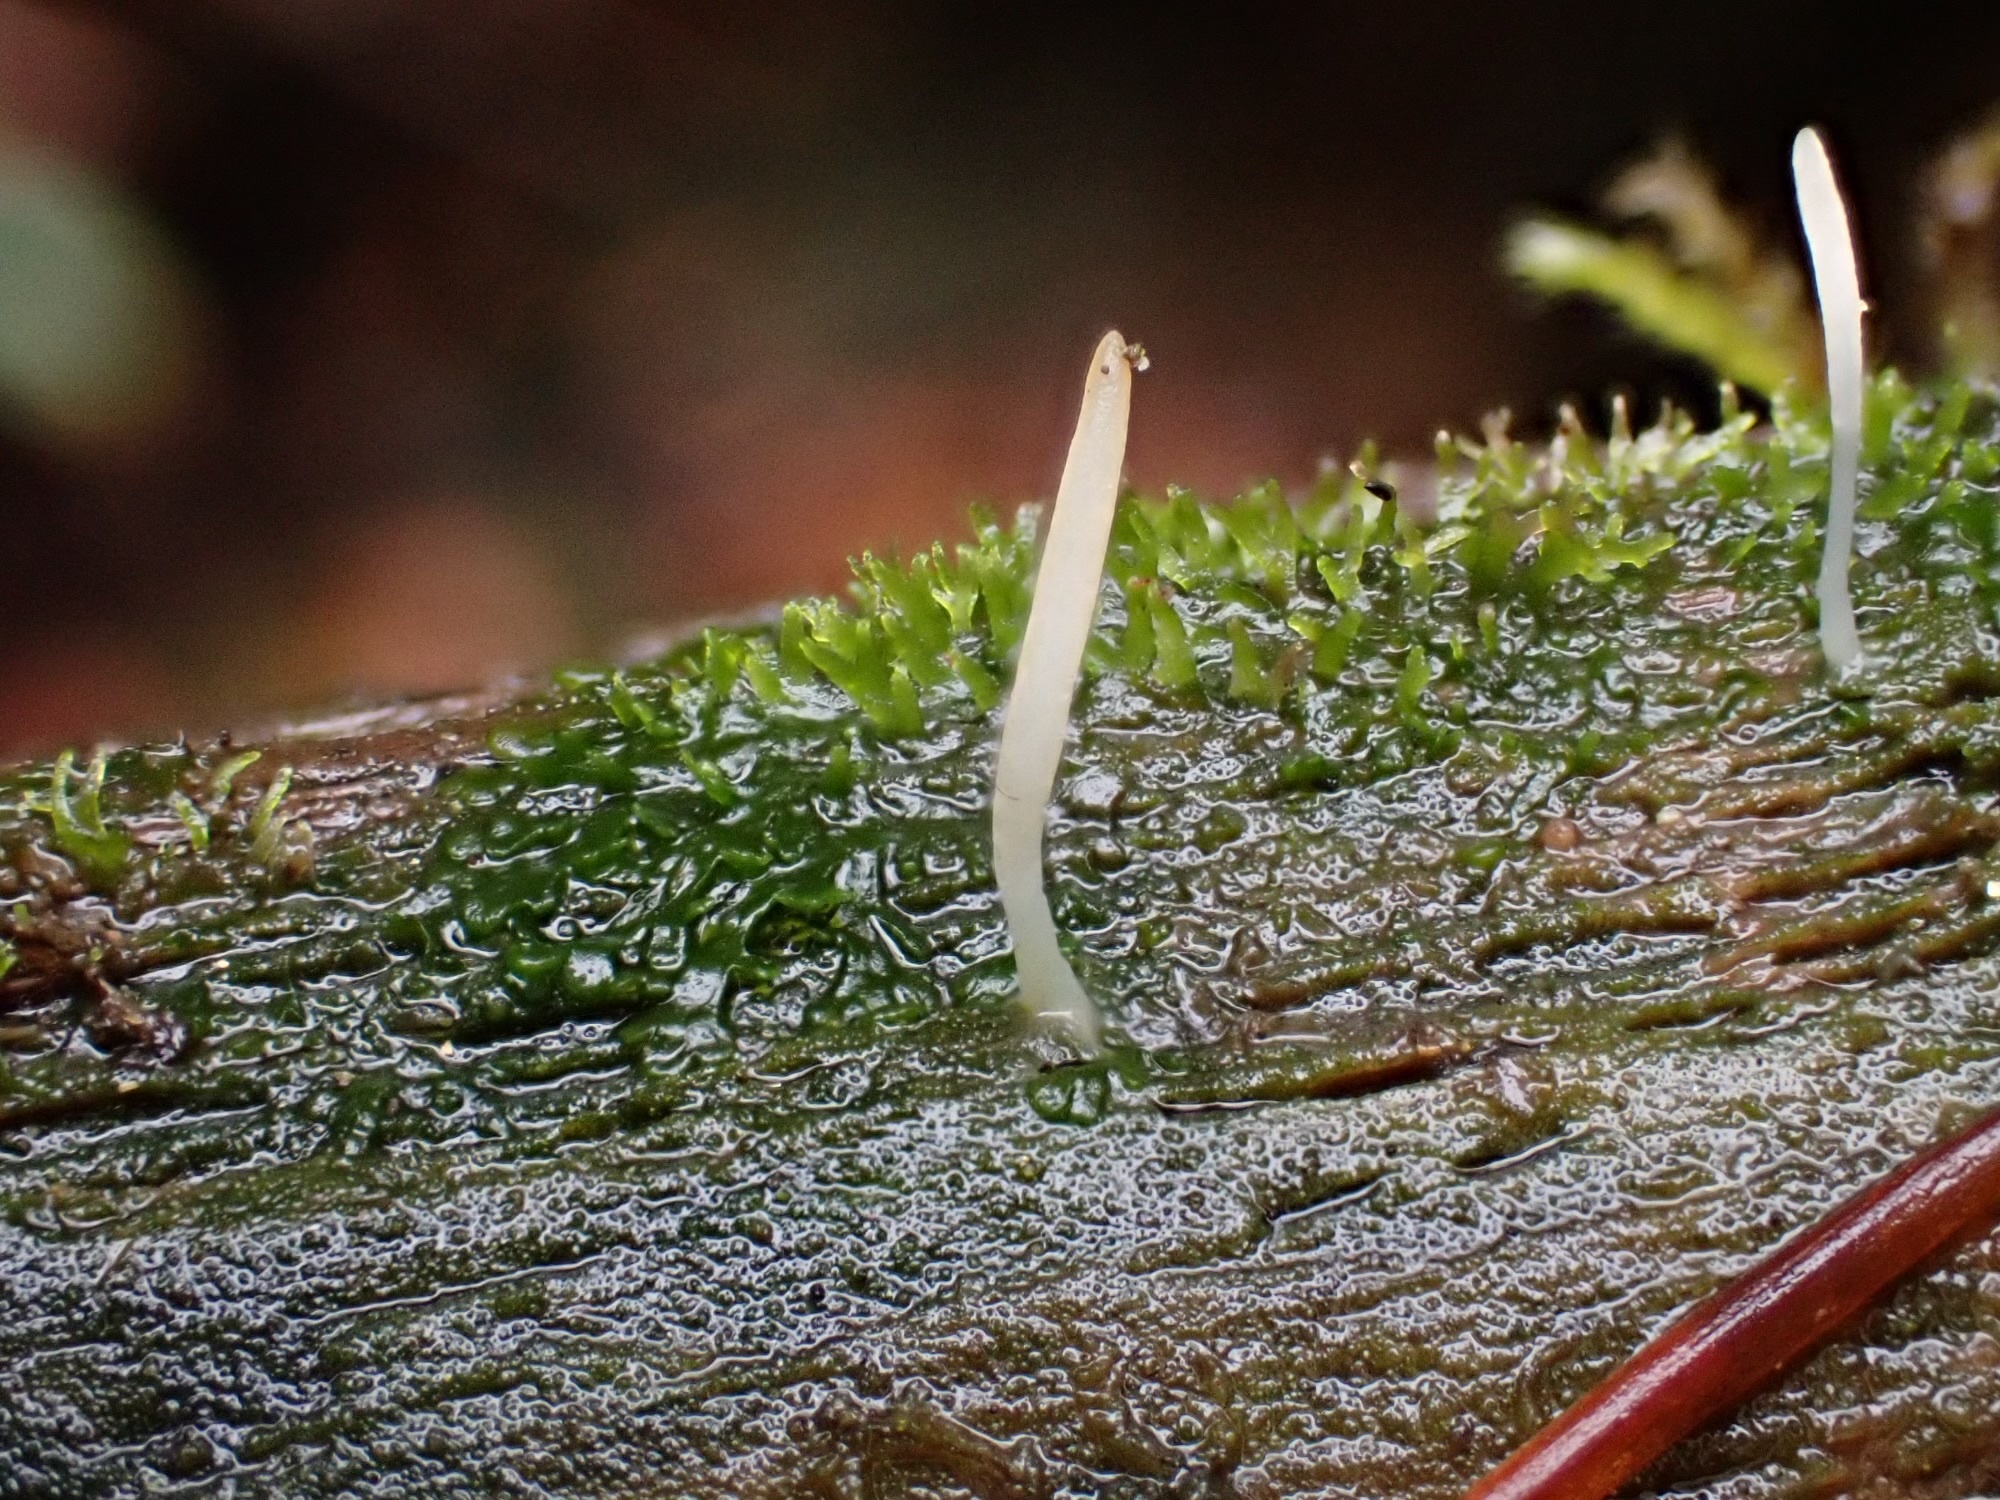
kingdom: Fungi
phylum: Basidiomycota
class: Agaricomycetes
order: Cantharellales
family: Hydnaceae
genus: Multiclavula
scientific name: Multiclavula mucida
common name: White green-algae coral
